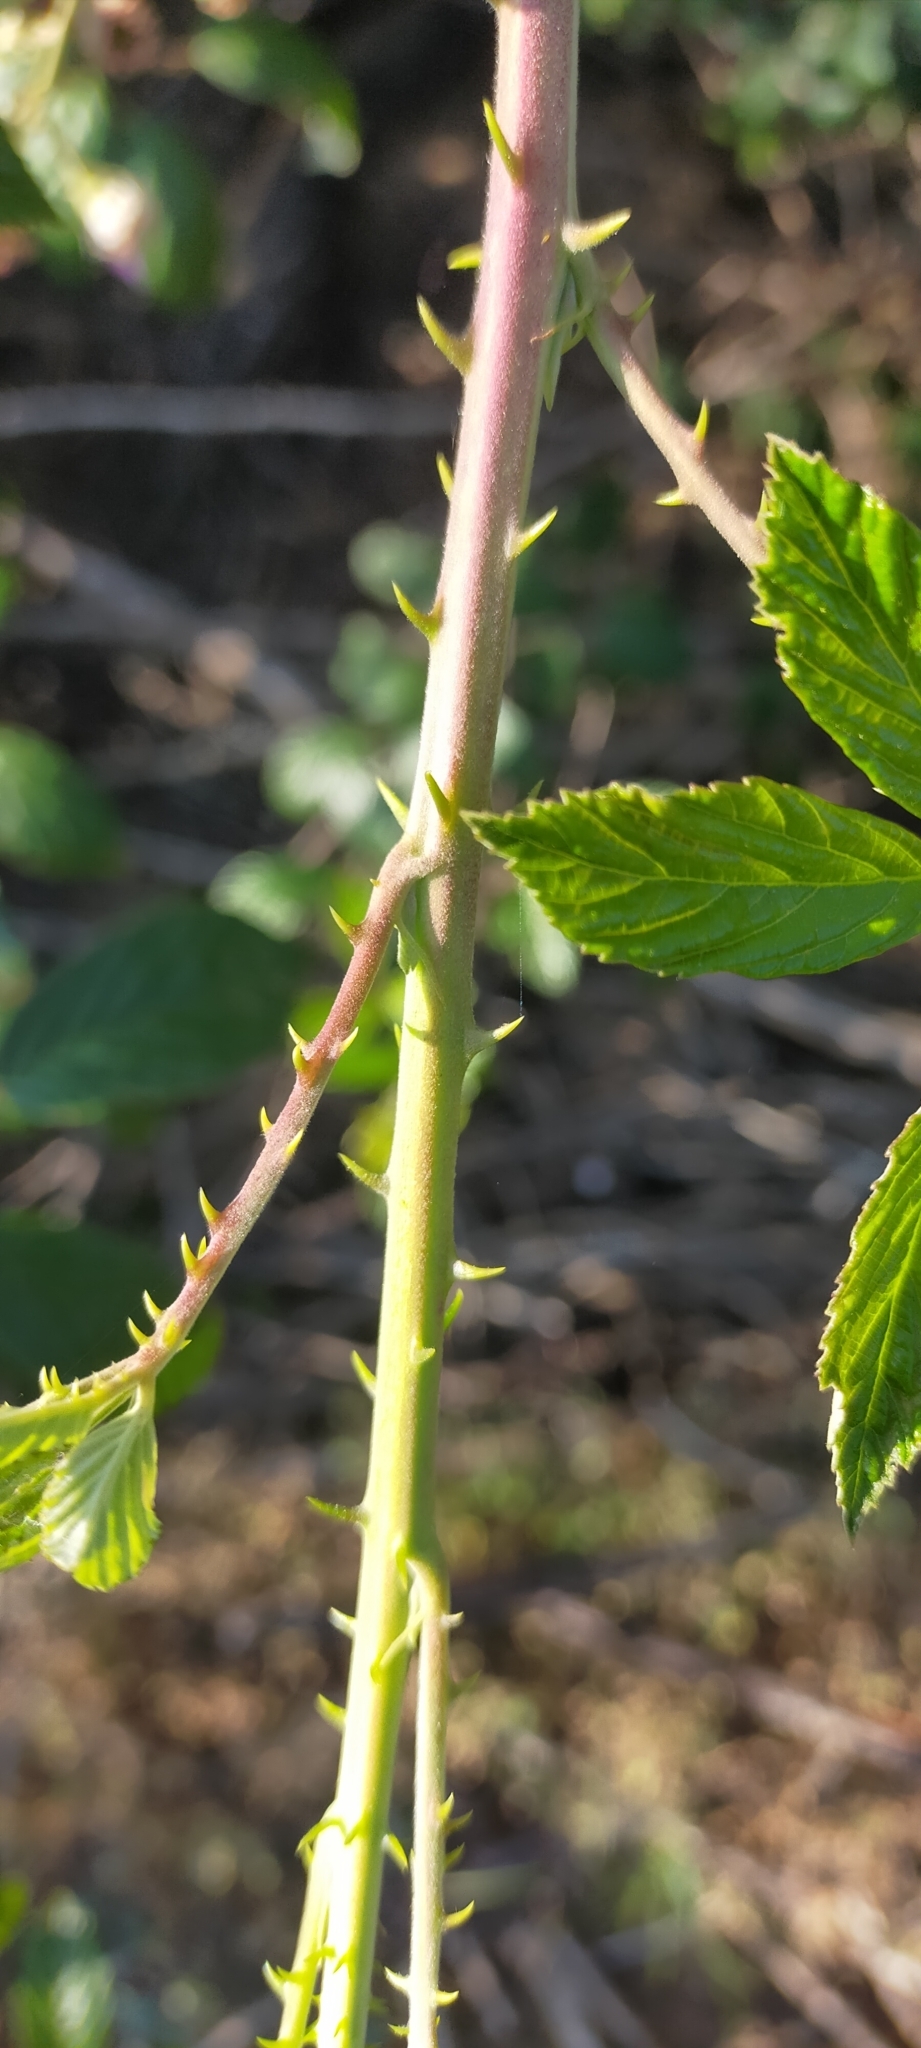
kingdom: Plantae
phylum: Tracheophyta
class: Magnoliopsida
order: Rosales
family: Rosaceae
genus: Rubus
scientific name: Rubus ulmifolius
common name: Elmleaf blackberry
